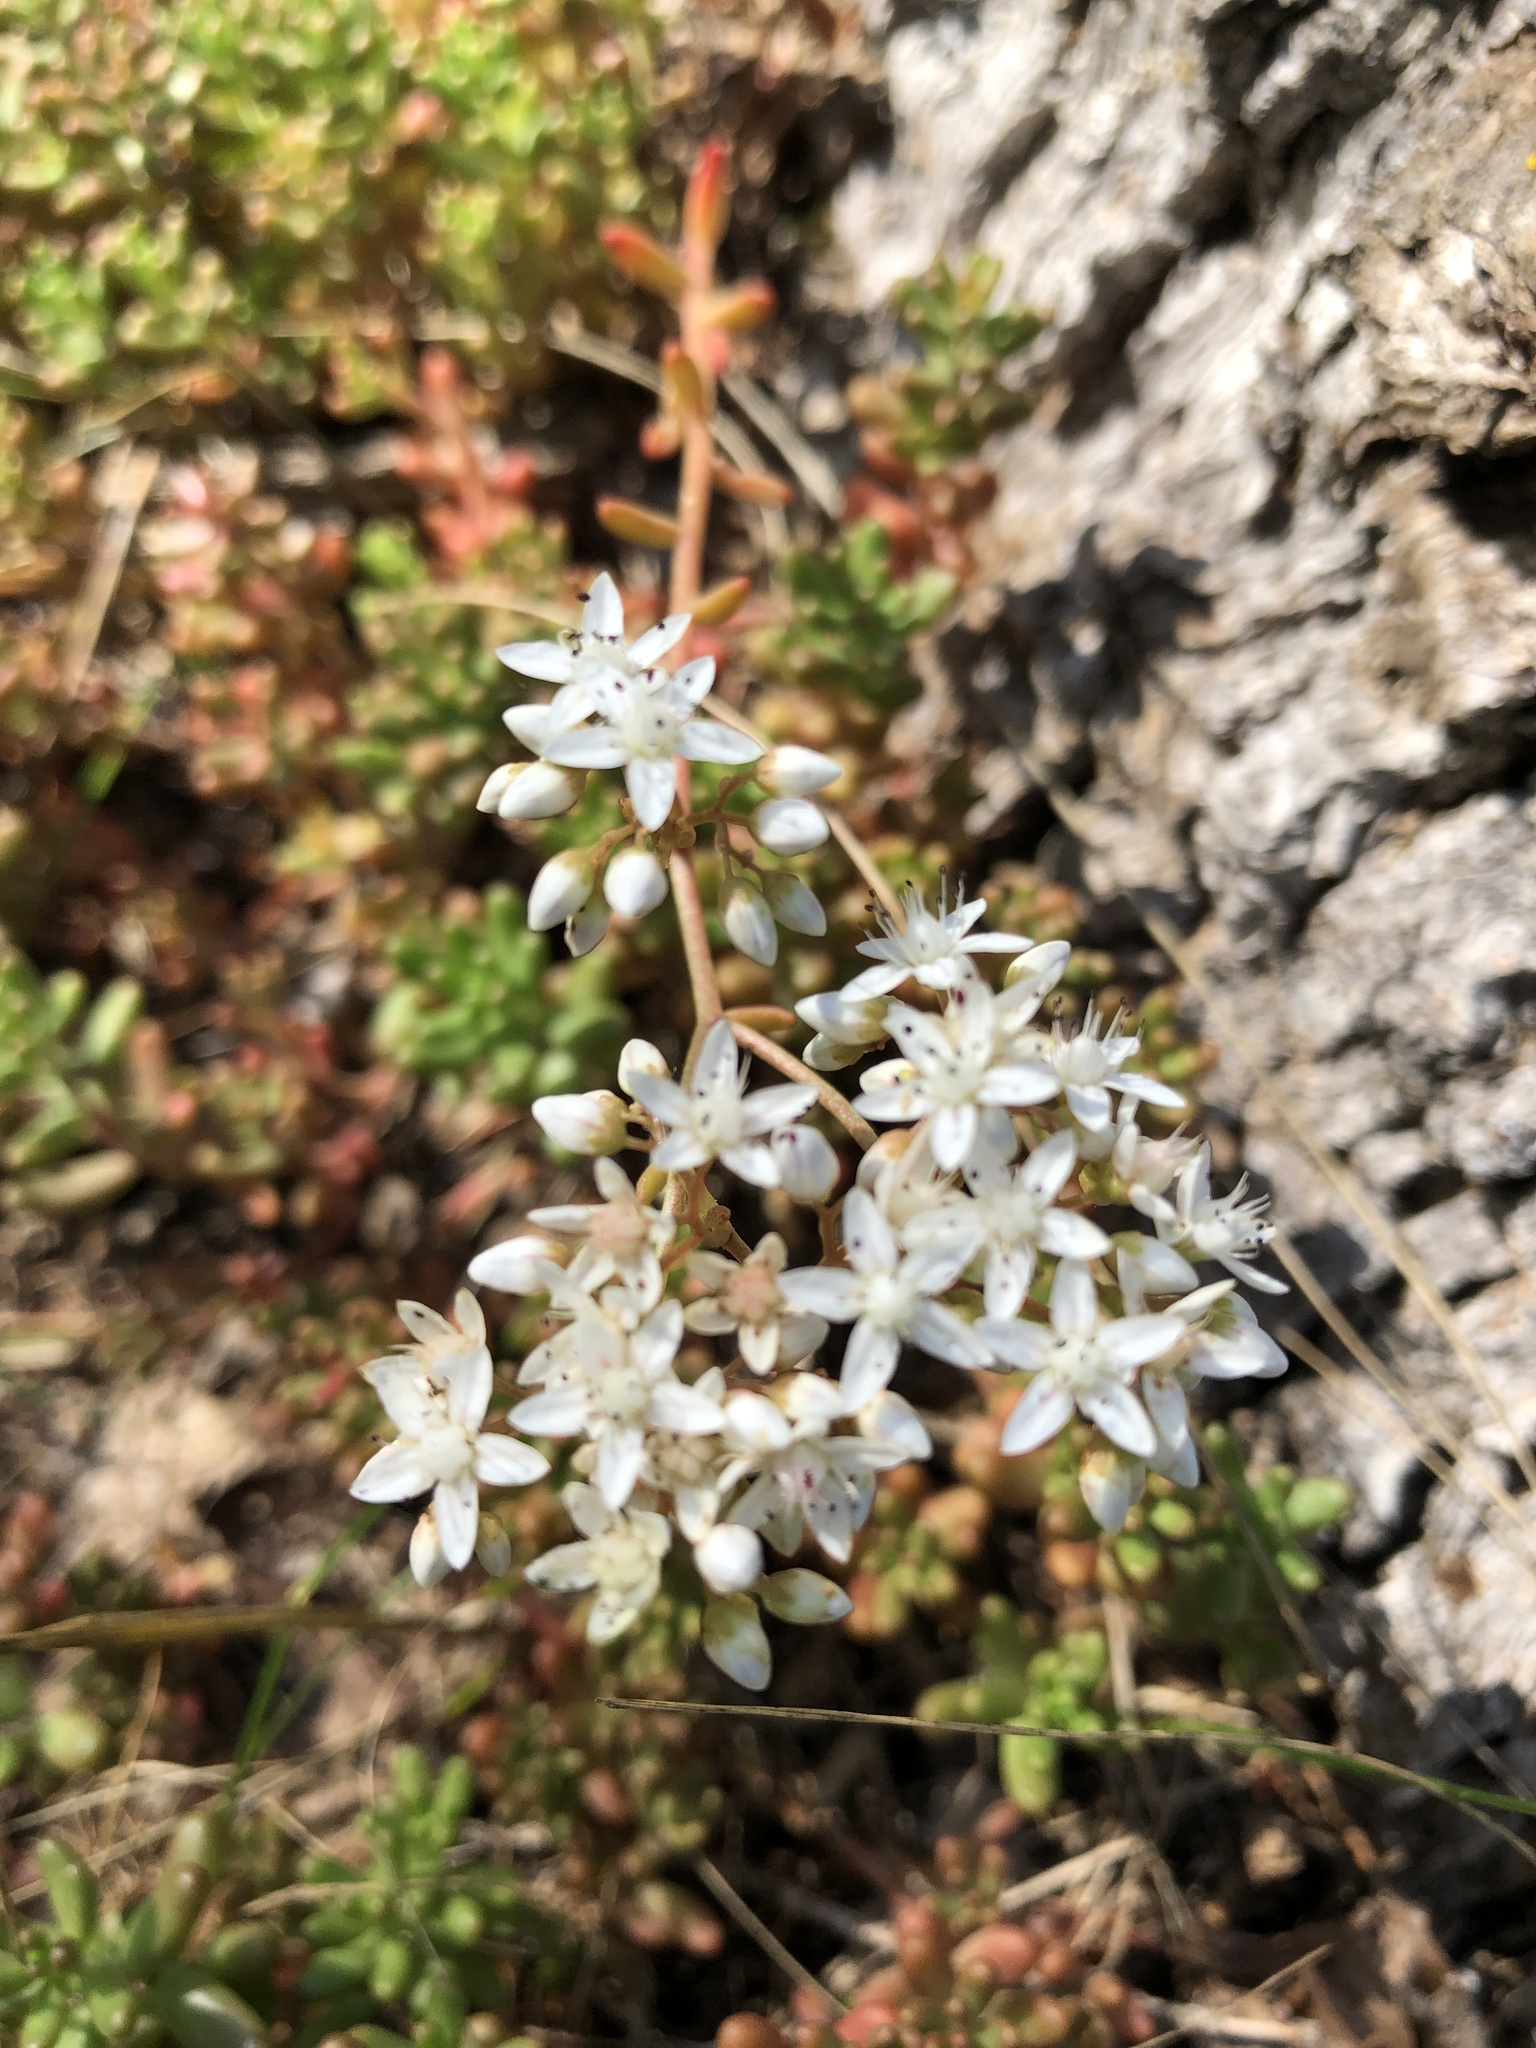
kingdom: Plantae
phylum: Tracheophyta
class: Magnoliopsida
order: Saxifragales
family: Crassulaceae
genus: Sedum
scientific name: Sedum album
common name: White stonecrop
